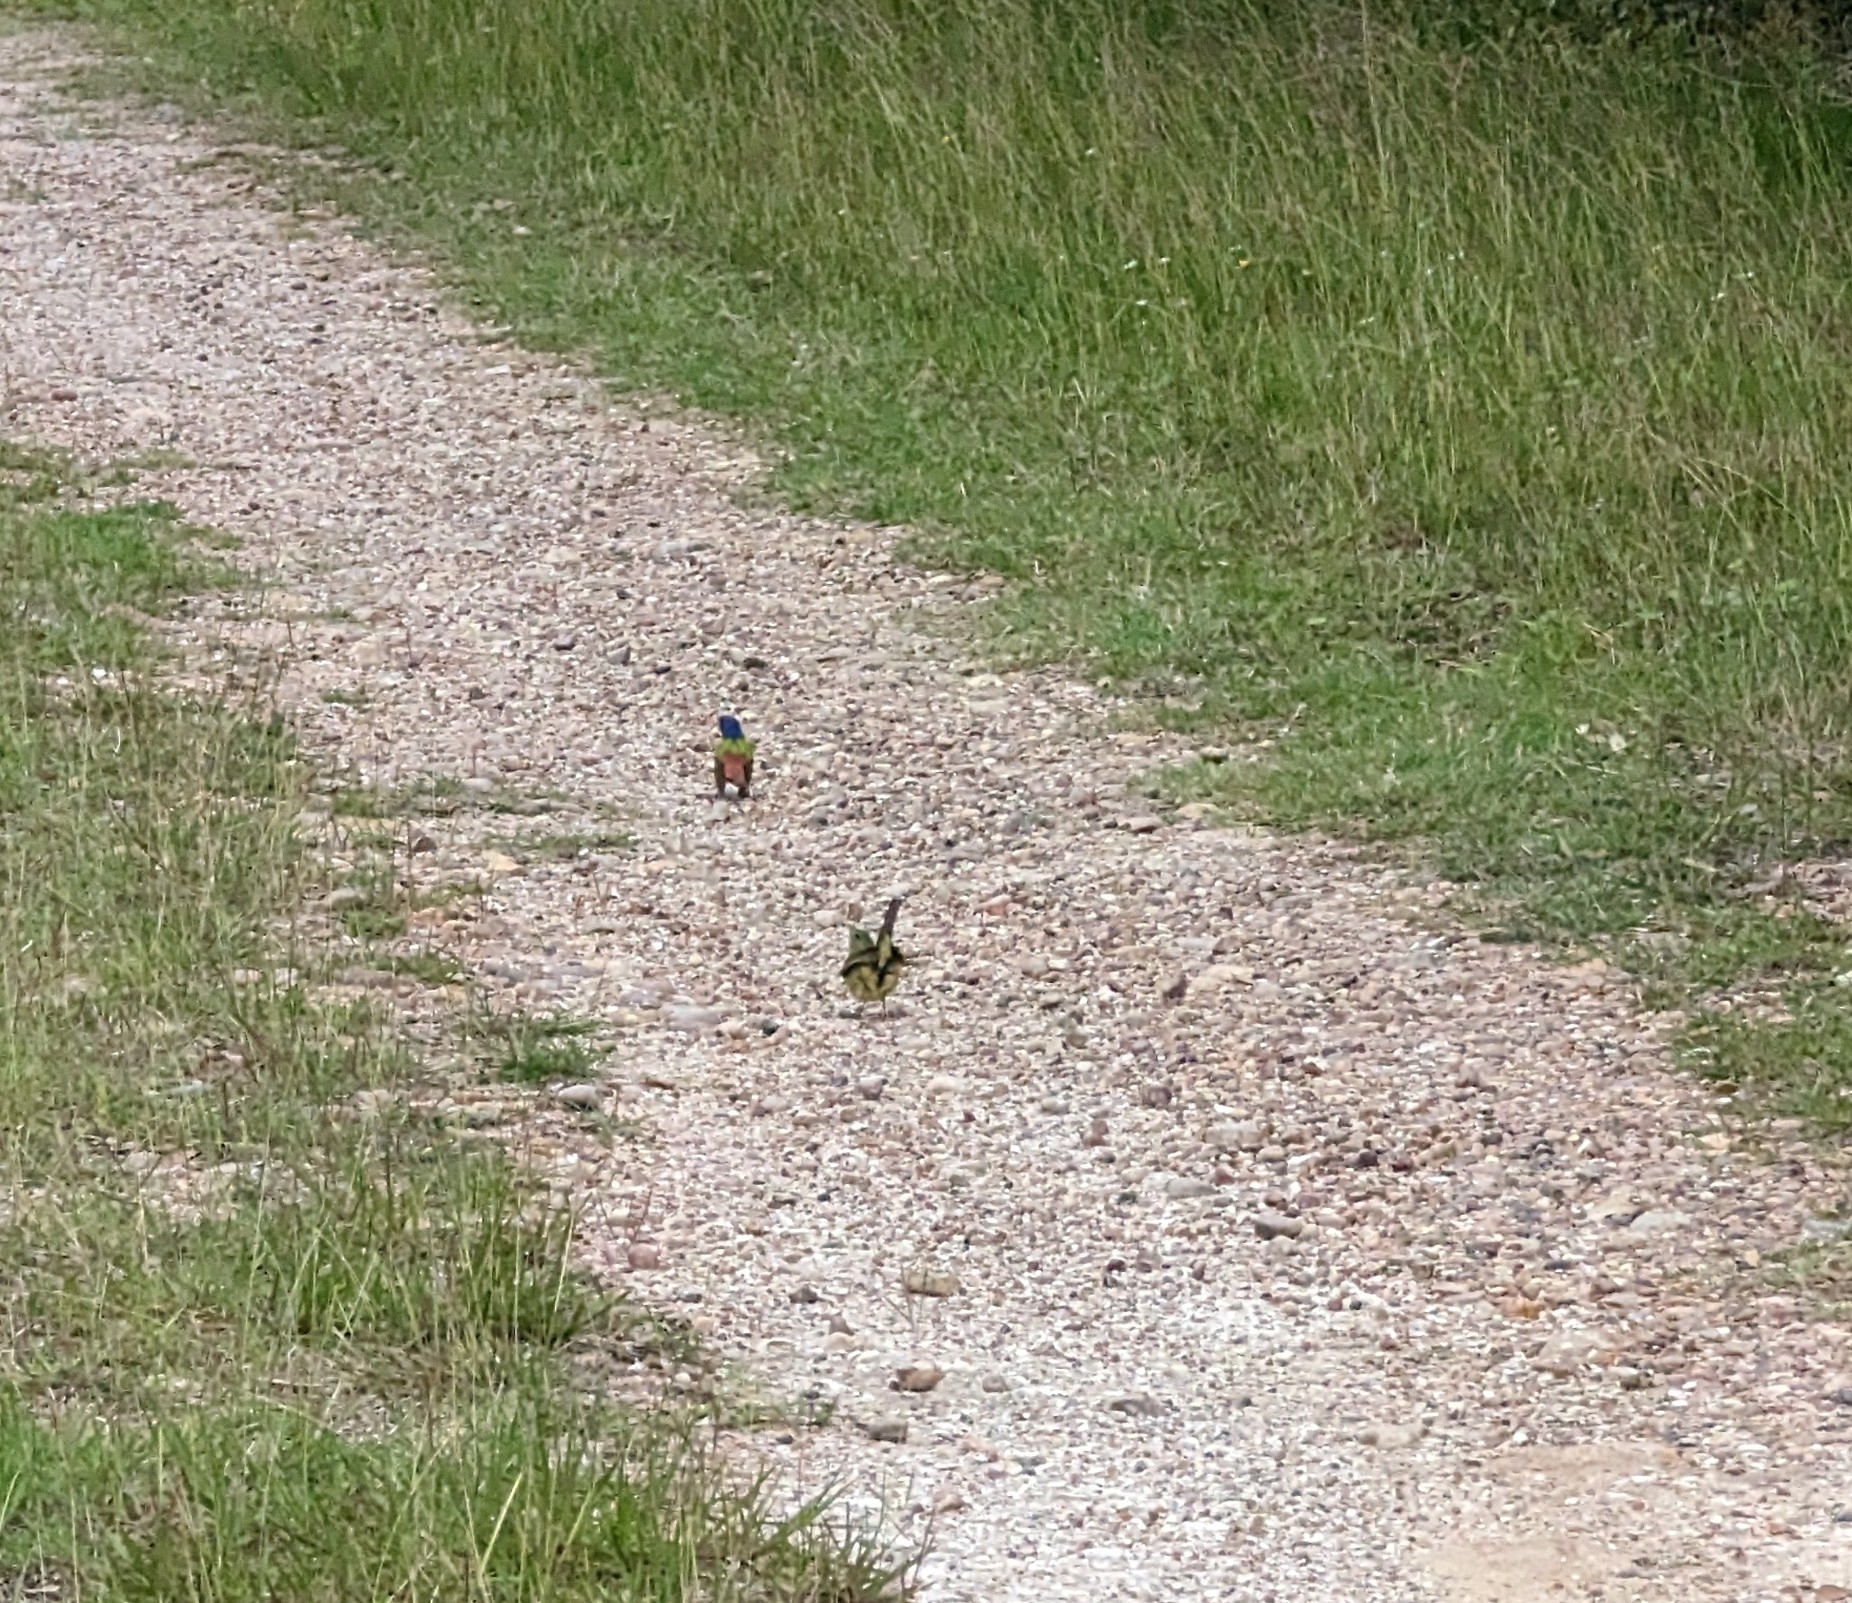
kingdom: Animalia
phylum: Chordata
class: Aves
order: Passeriformes
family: Cardinalidae
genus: Passerina
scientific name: Passerina ciris
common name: Painted bunting
